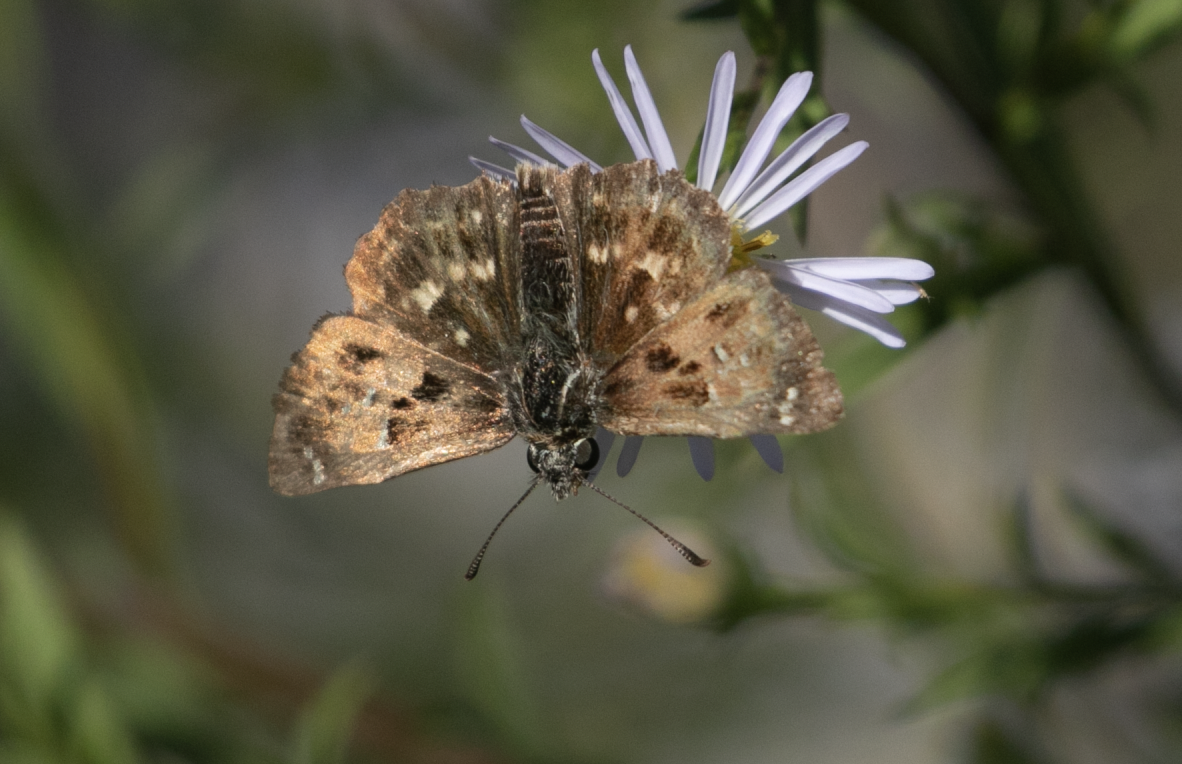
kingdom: Animalia
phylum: Arthropoda
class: Insecta
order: Lepidoptera
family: Hesperiidae
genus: Carcharodus
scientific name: Carcharodus alceae
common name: Mallow skipper
